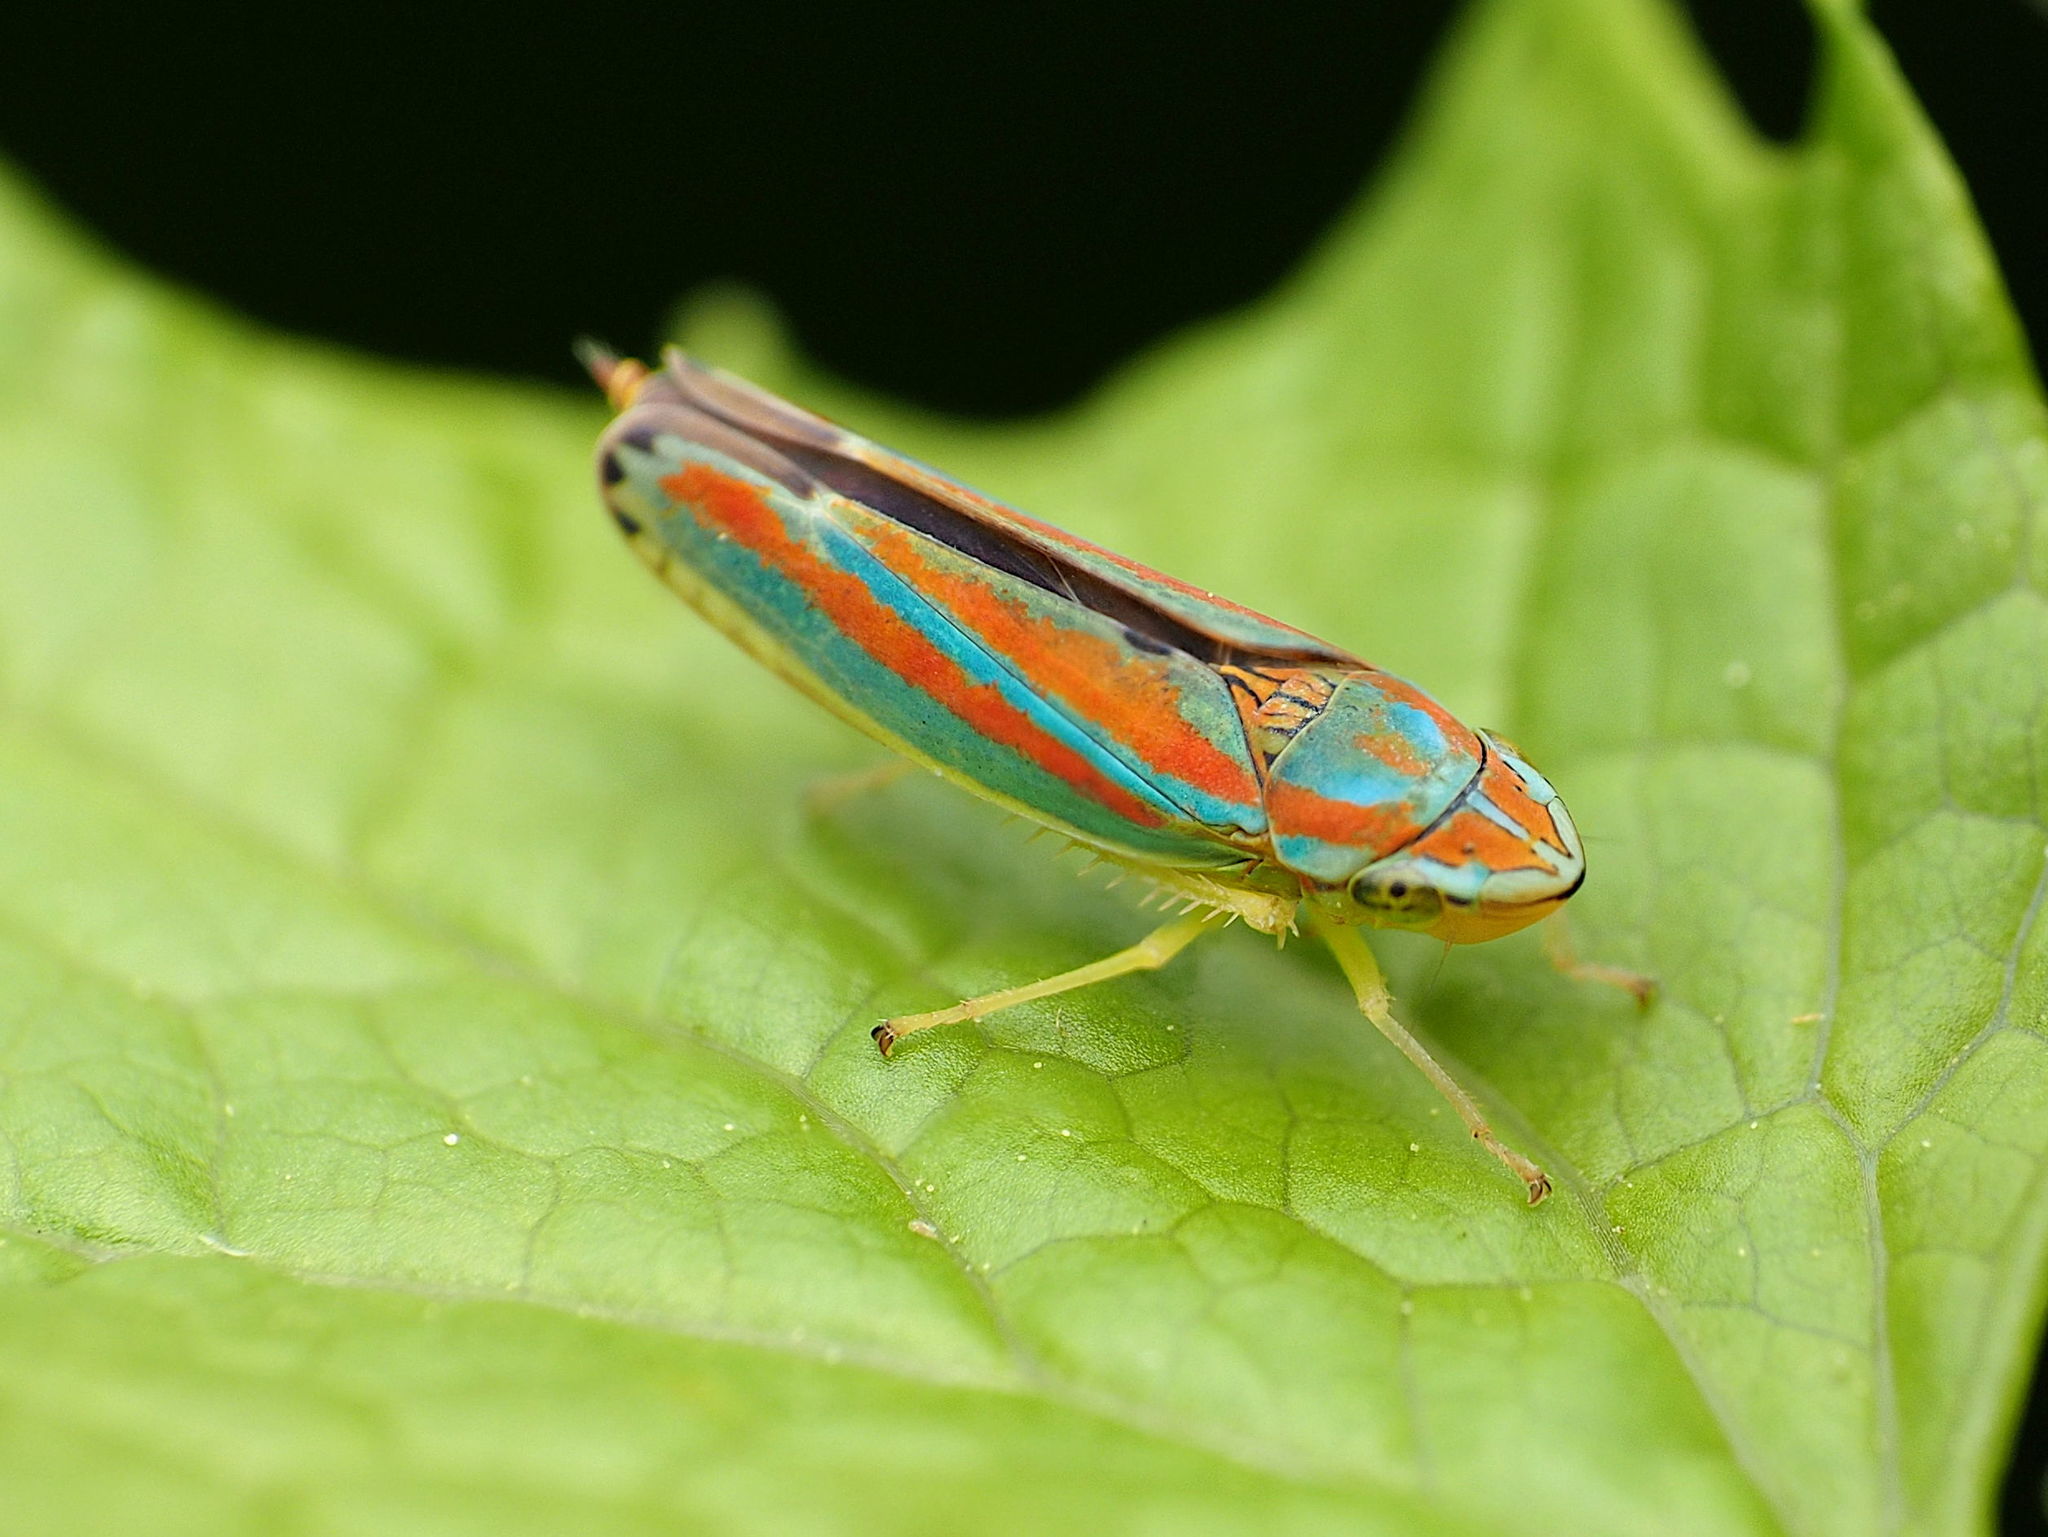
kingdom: Animalia
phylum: Arthropoda
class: Insecta
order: Hemiptera
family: Cicadellidae
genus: Graphocephala
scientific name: Graphocephala versuta
